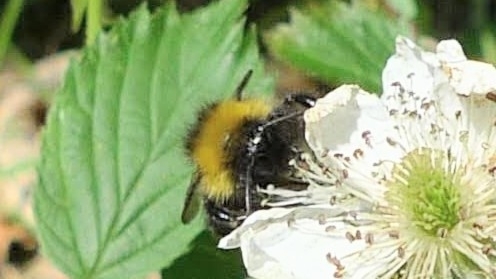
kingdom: Animalia
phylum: Arthropoda
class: Insecta
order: Hymenoptera
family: Apidae
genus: Bombus
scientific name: Bombus pascuorum
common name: Common carder bee
